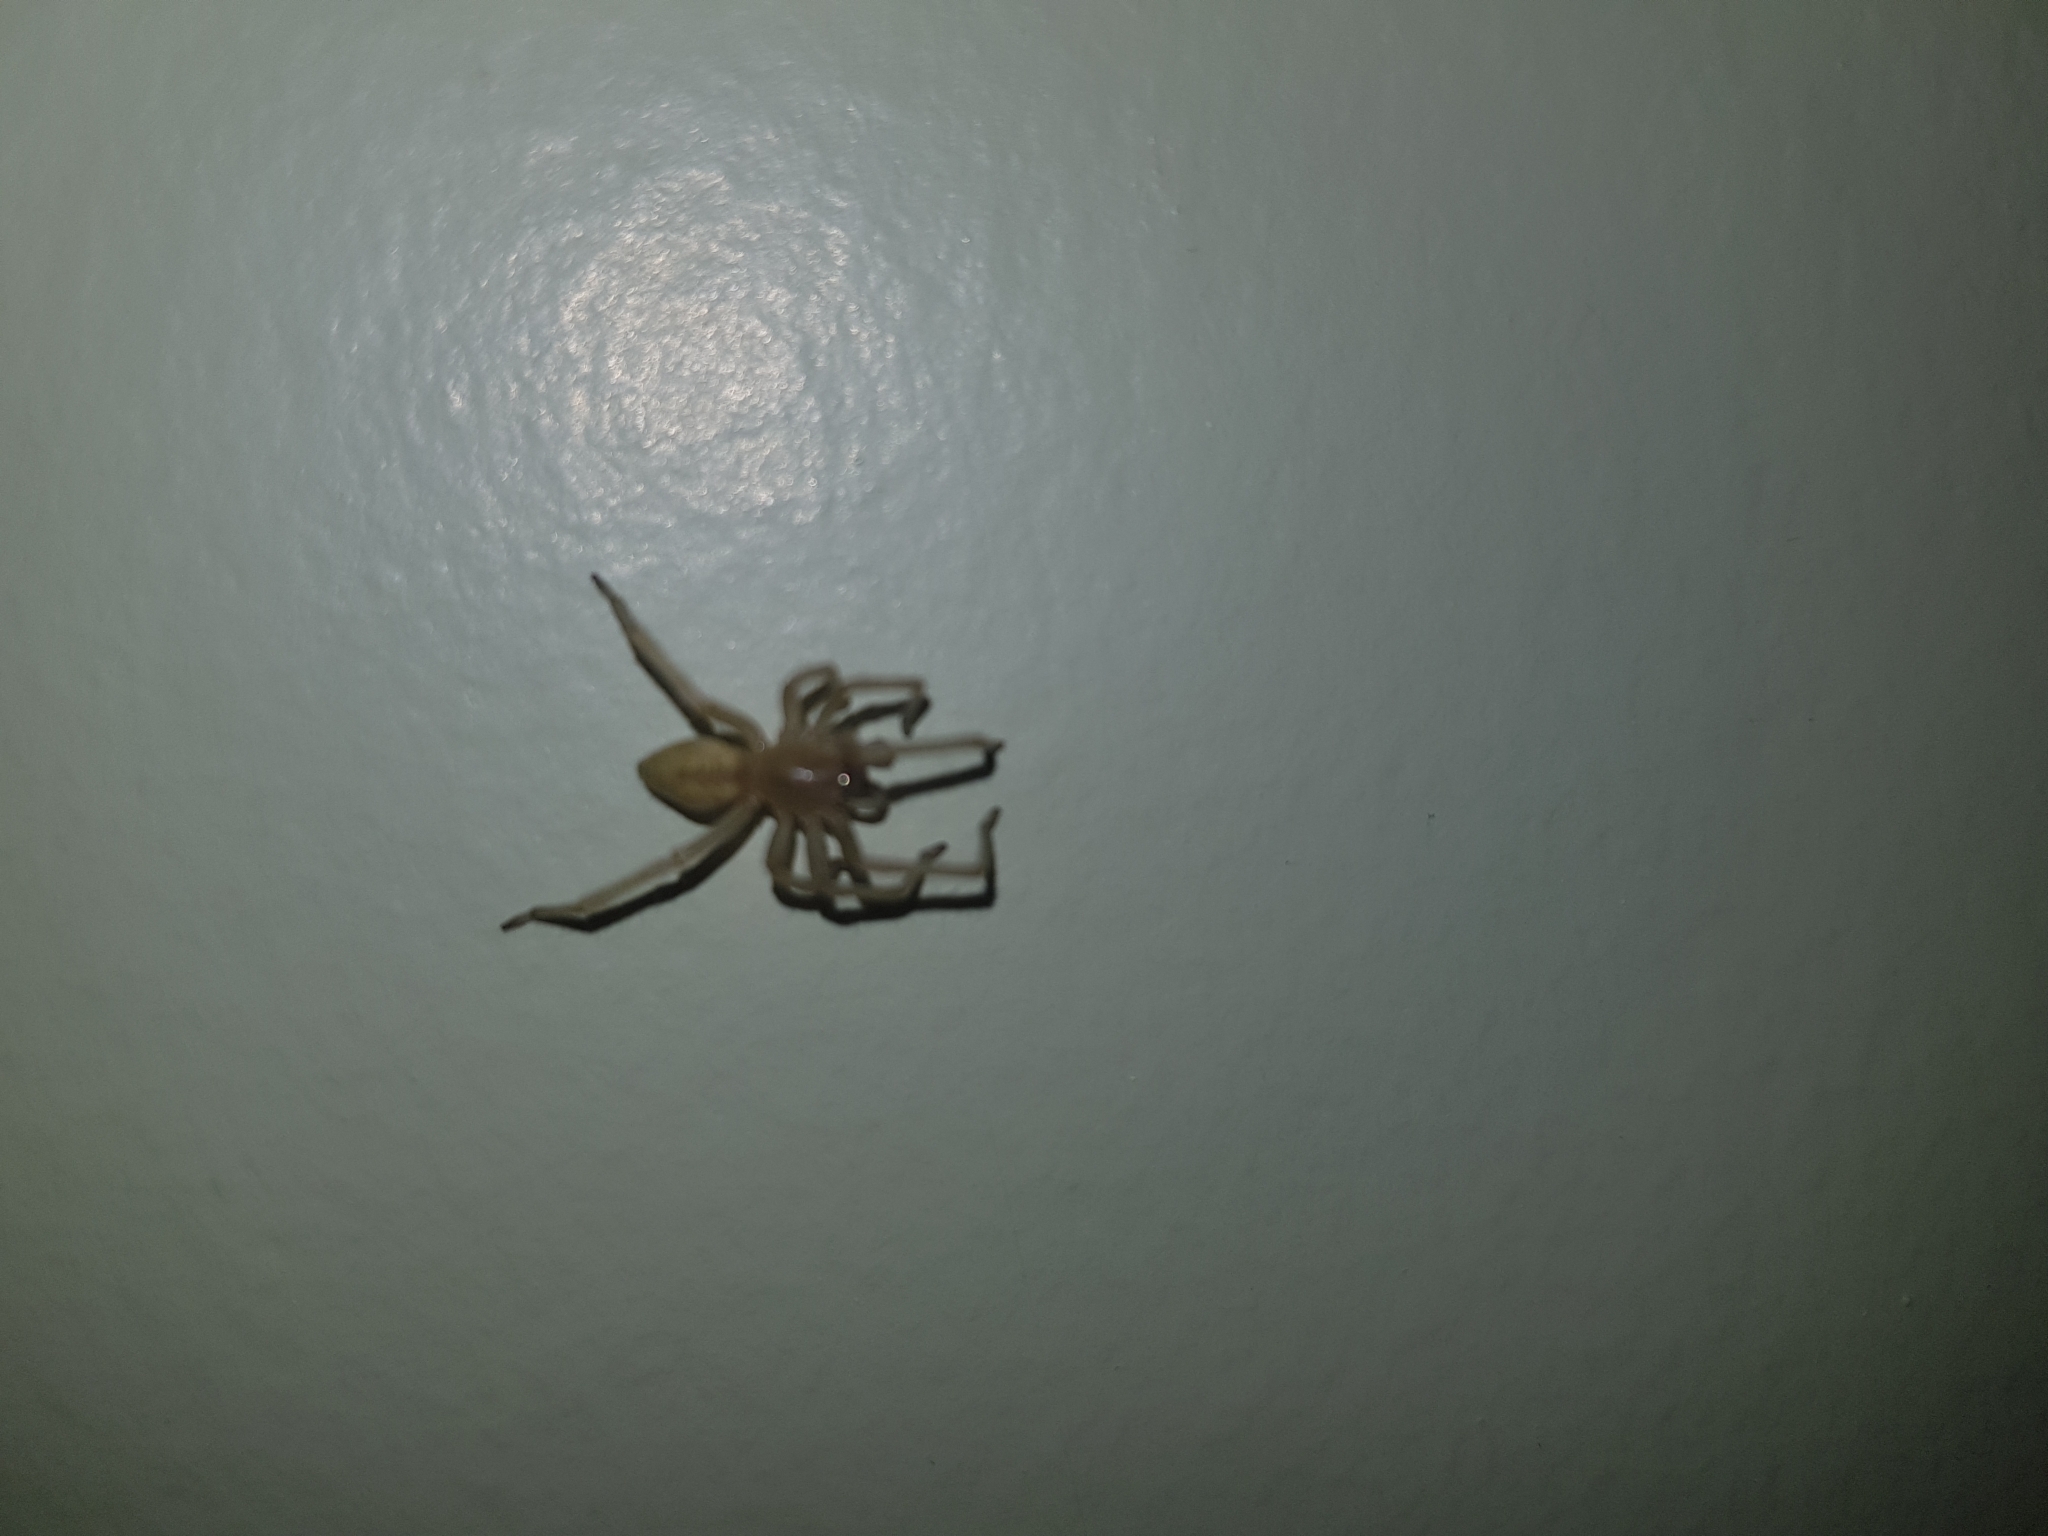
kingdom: Animalia
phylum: Arthropoda
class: Arachnida
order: Araneae
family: Cheiracanthiidae
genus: Cheiracanthium
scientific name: Cheiracanthium mildei
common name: Northern yellow sac spider
